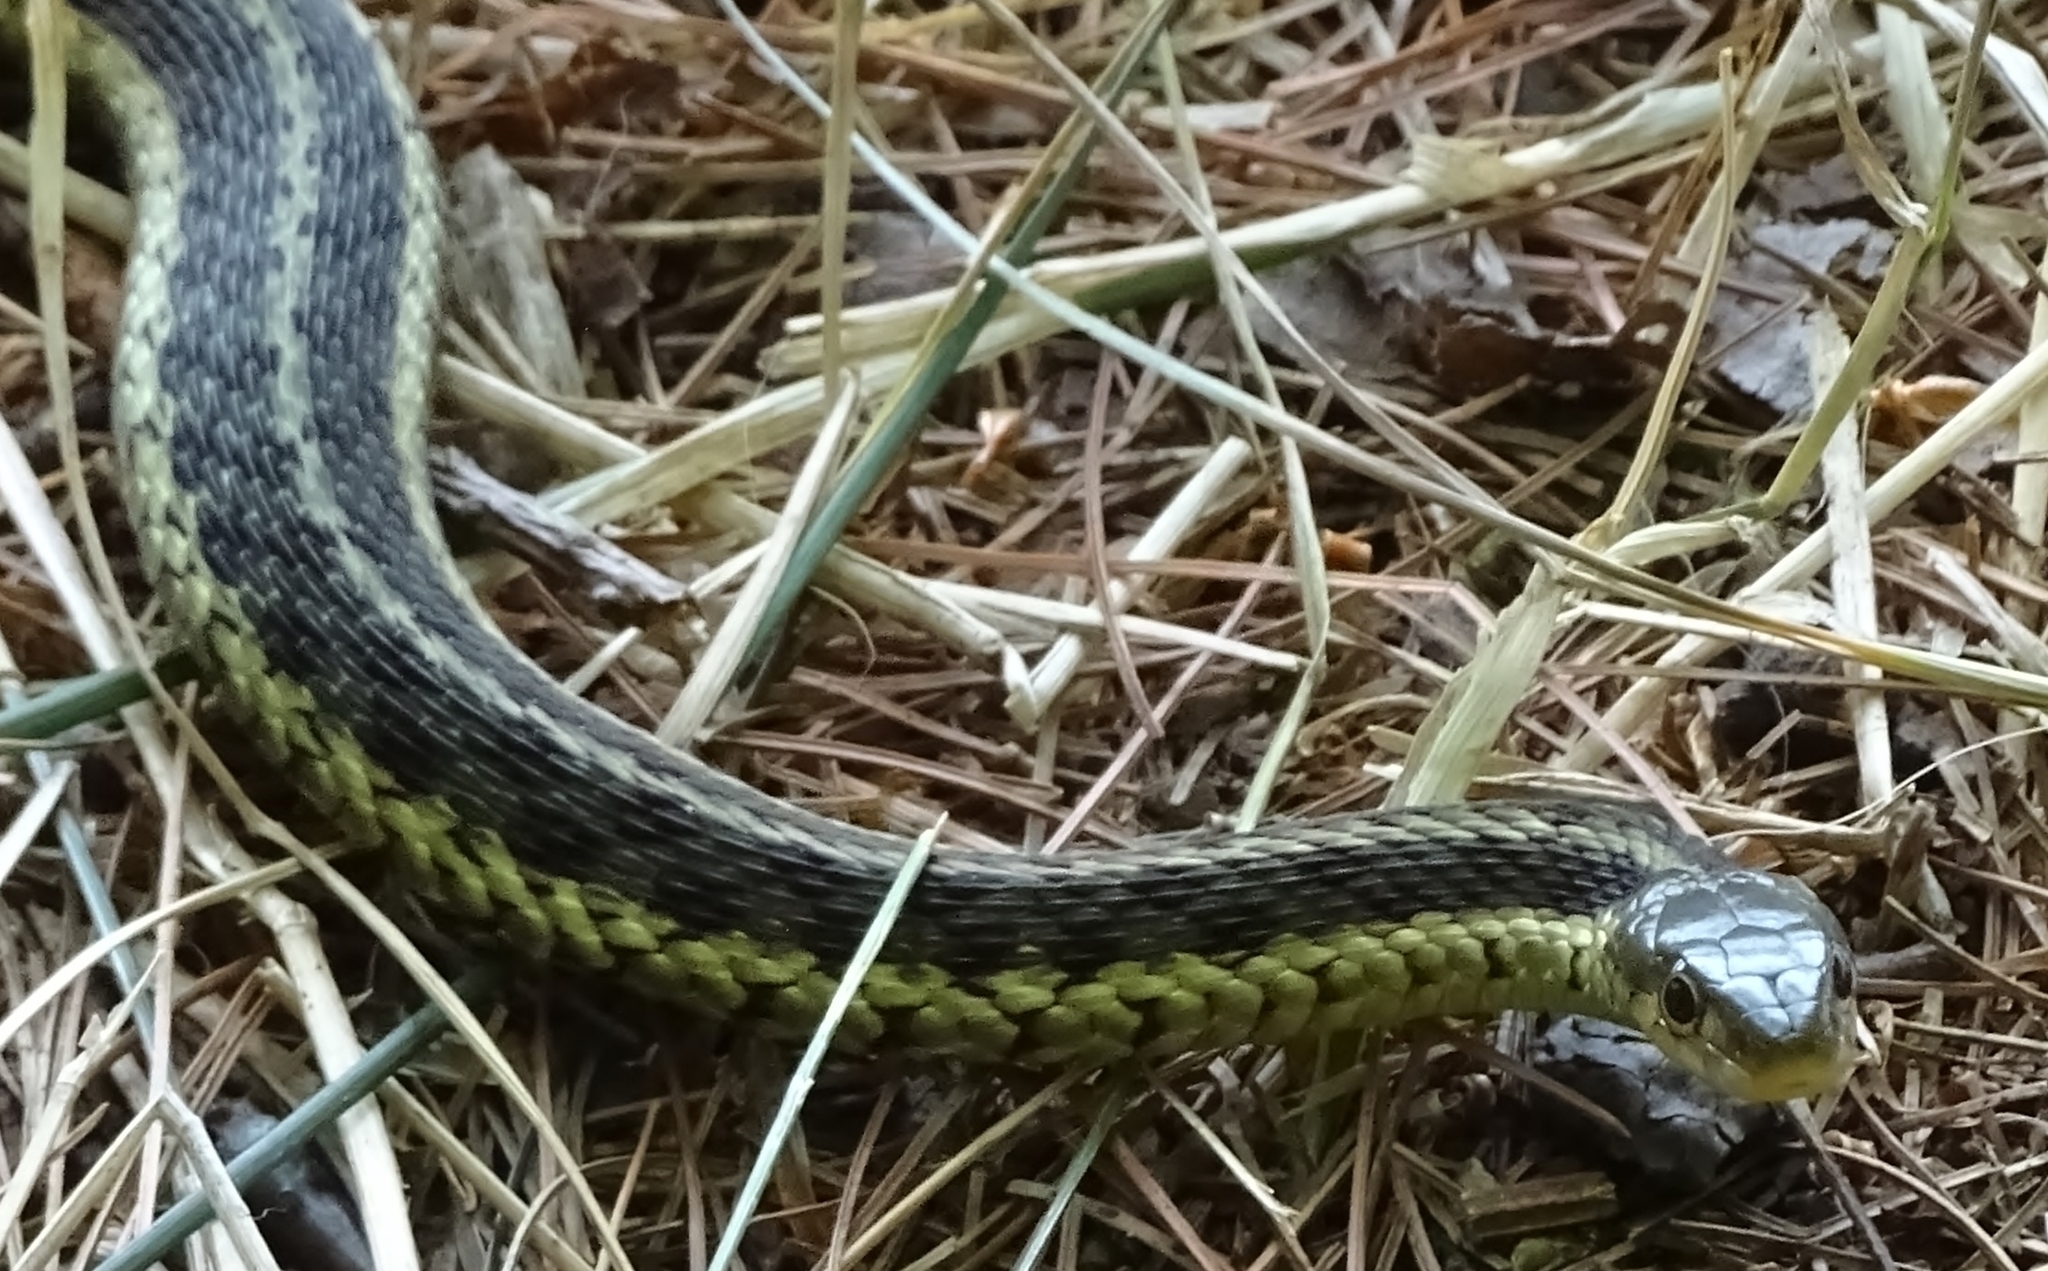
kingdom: Animalia
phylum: Chordata
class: Squamata
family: Colubridae
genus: Thamnophis
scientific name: Thamnophis sirtalis
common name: Common garter snake
